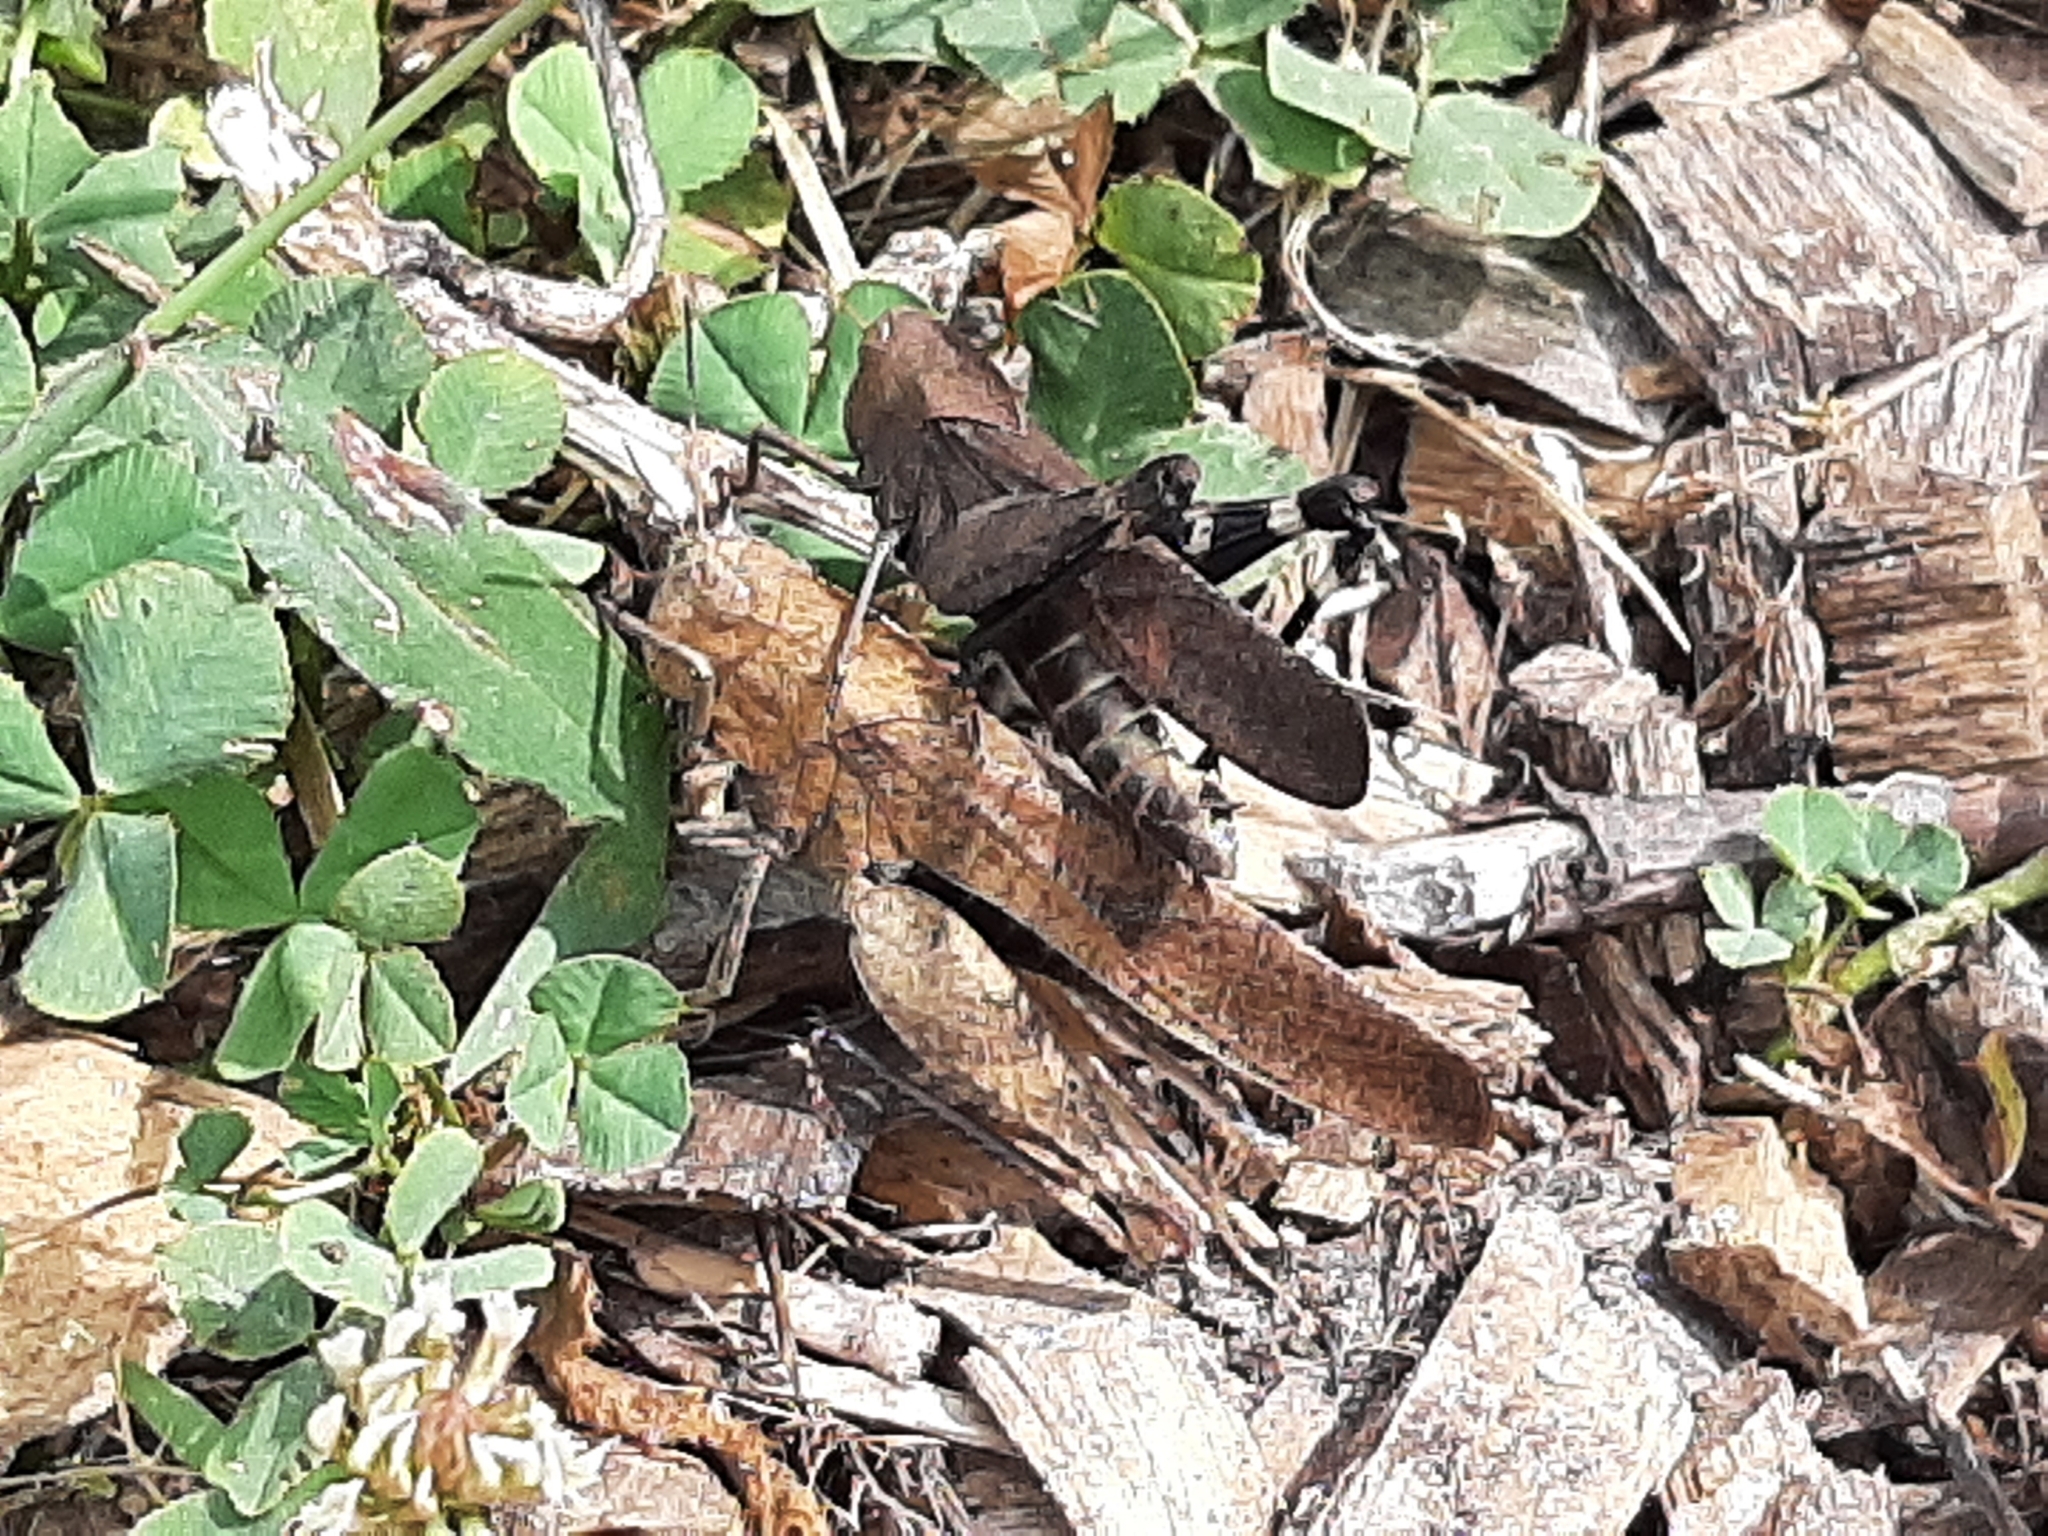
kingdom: Animalia
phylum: Arthropoda
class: Insecta
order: Orthoptera
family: Acrididae
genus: Arphia
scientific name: Arphia xanthoptera
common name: Autumn yellow-winged grasshopper
